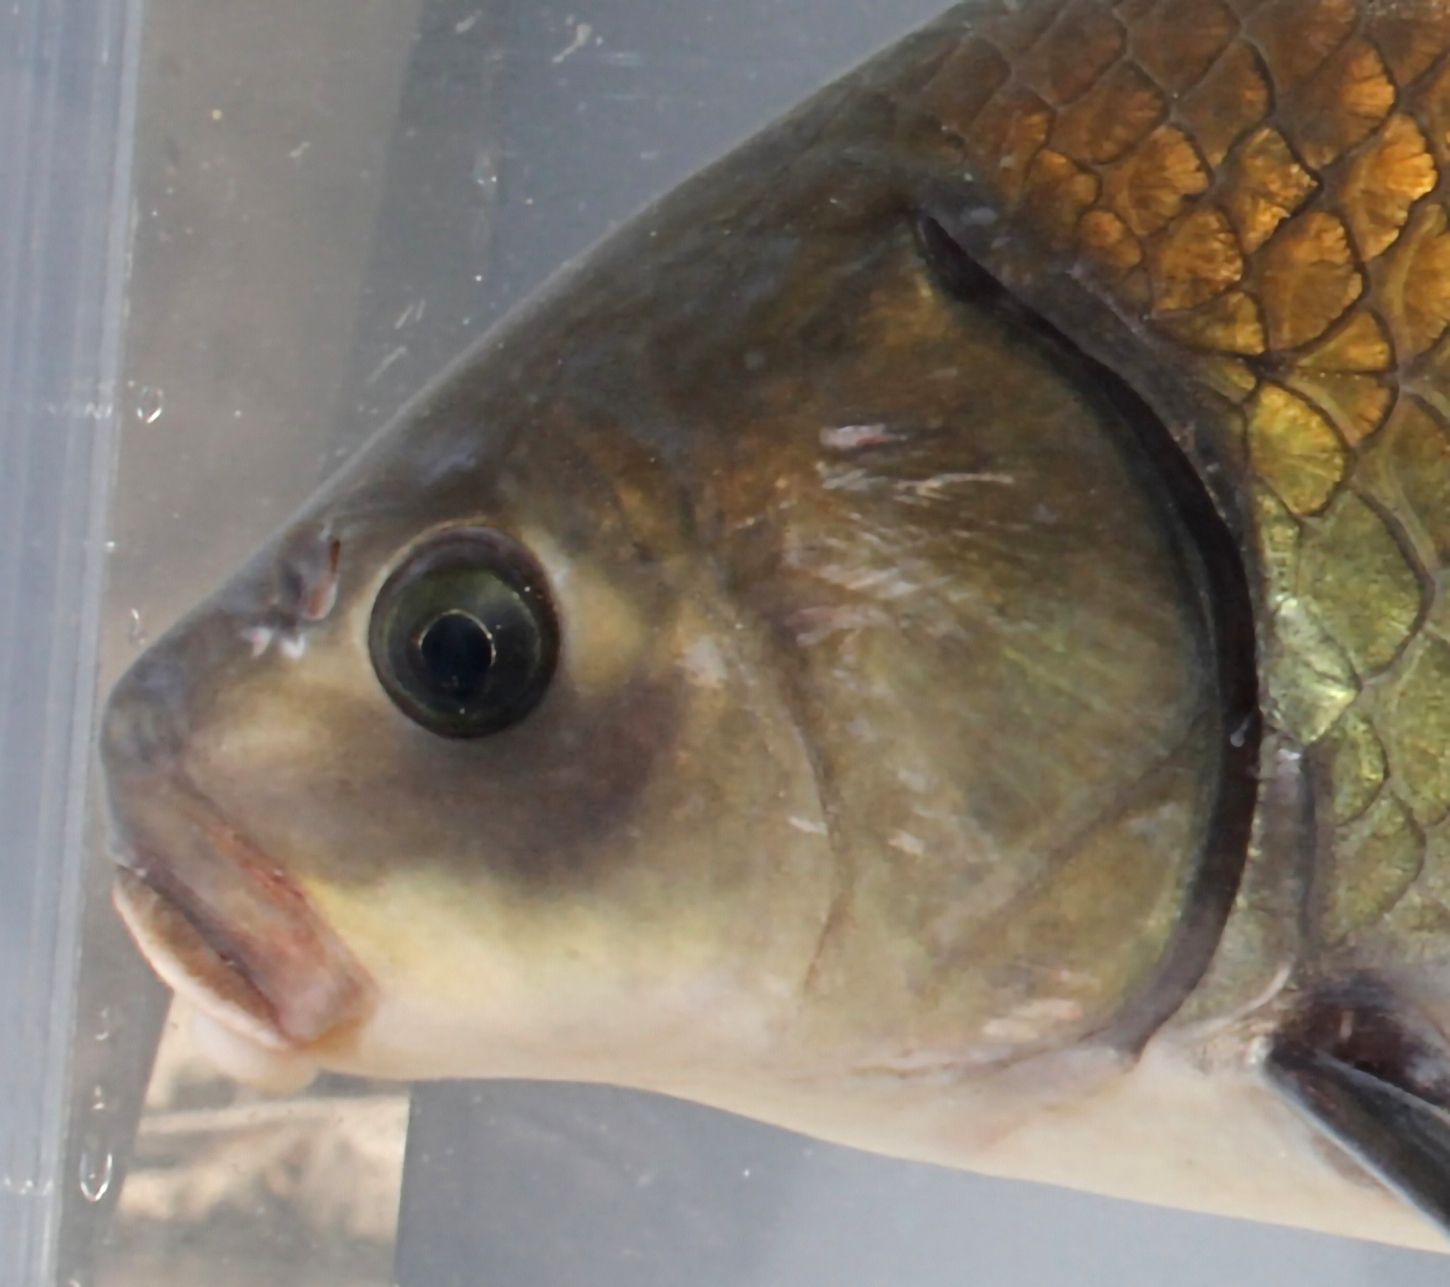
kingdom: Animalia
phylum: Chordata
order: Cypriniformes
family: Catostomidae
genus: Ictiobus
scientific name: Ictiobus bubalus
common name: Smallmouth buffalo
